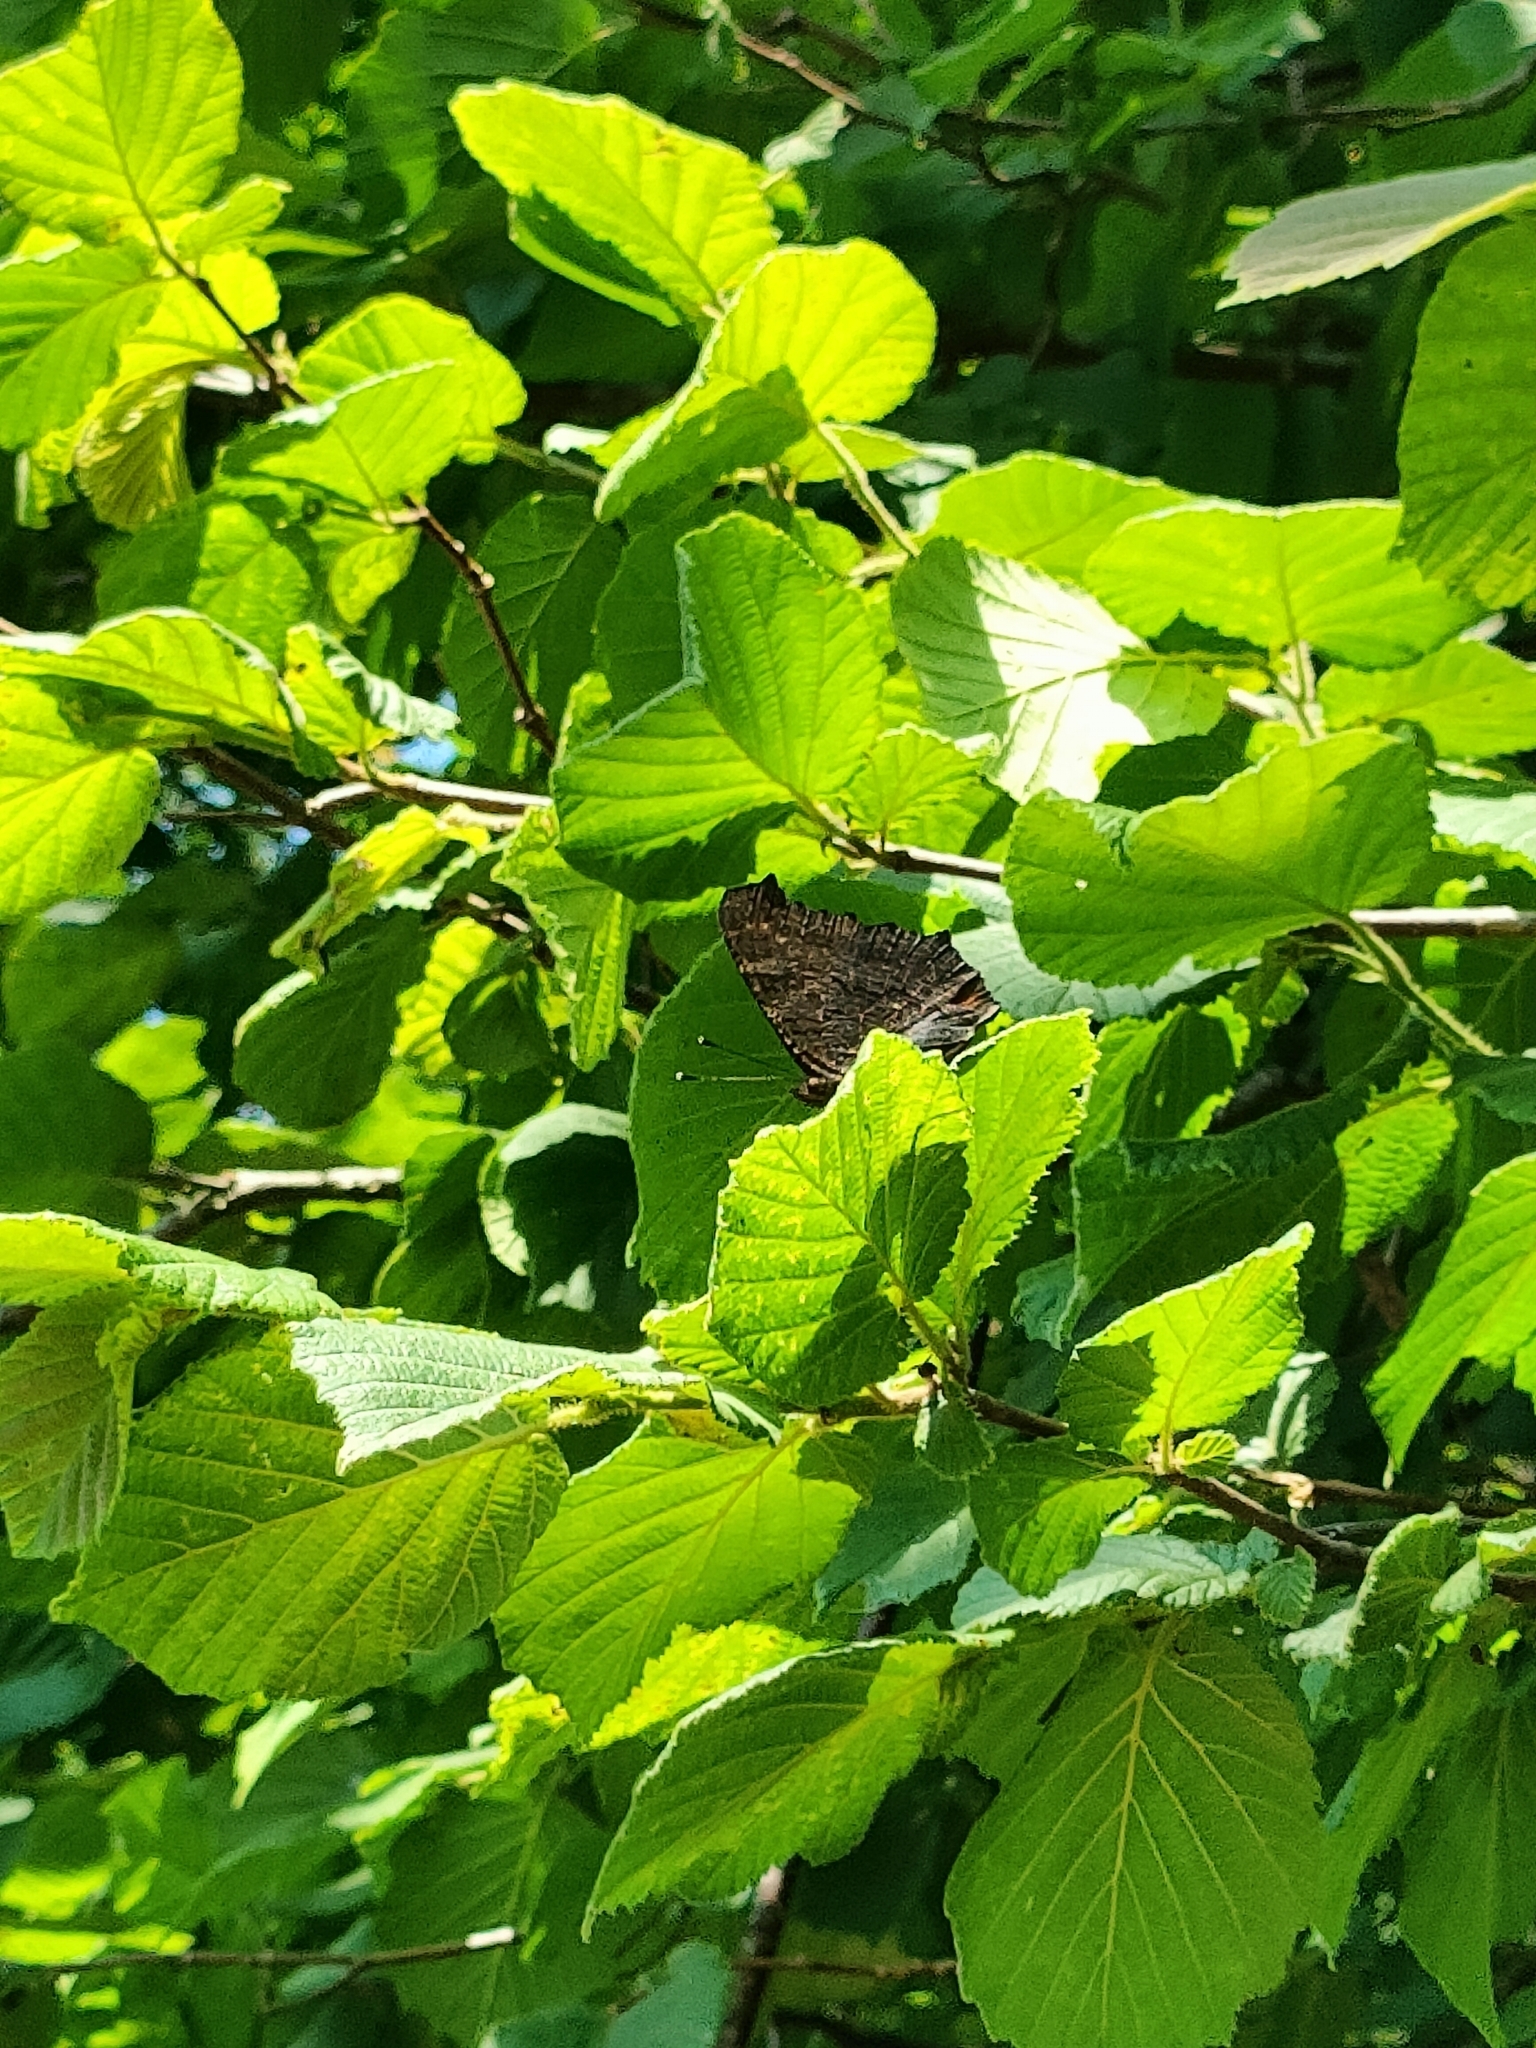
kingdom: Animalia
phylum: Arthropoda
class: Insecta
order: Lepidoptera
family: Nymphalidae
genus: Aglais
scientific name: Aglais io
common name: Peacock
